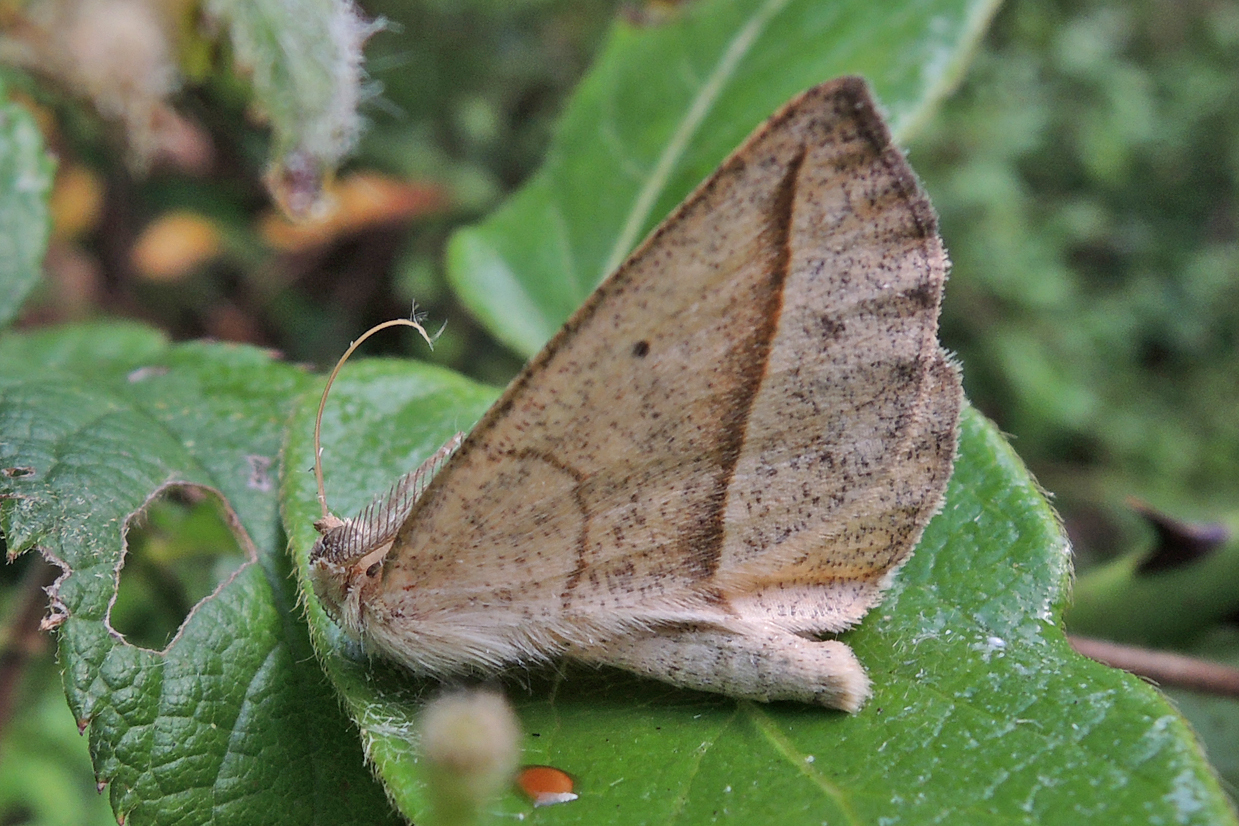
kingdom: Animalia
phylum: Arthropoda
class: Insecta
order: Lepidoptera
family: Geometridae
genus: Eusarca
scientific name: Eusarca confusaria
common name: Confused eusarca
